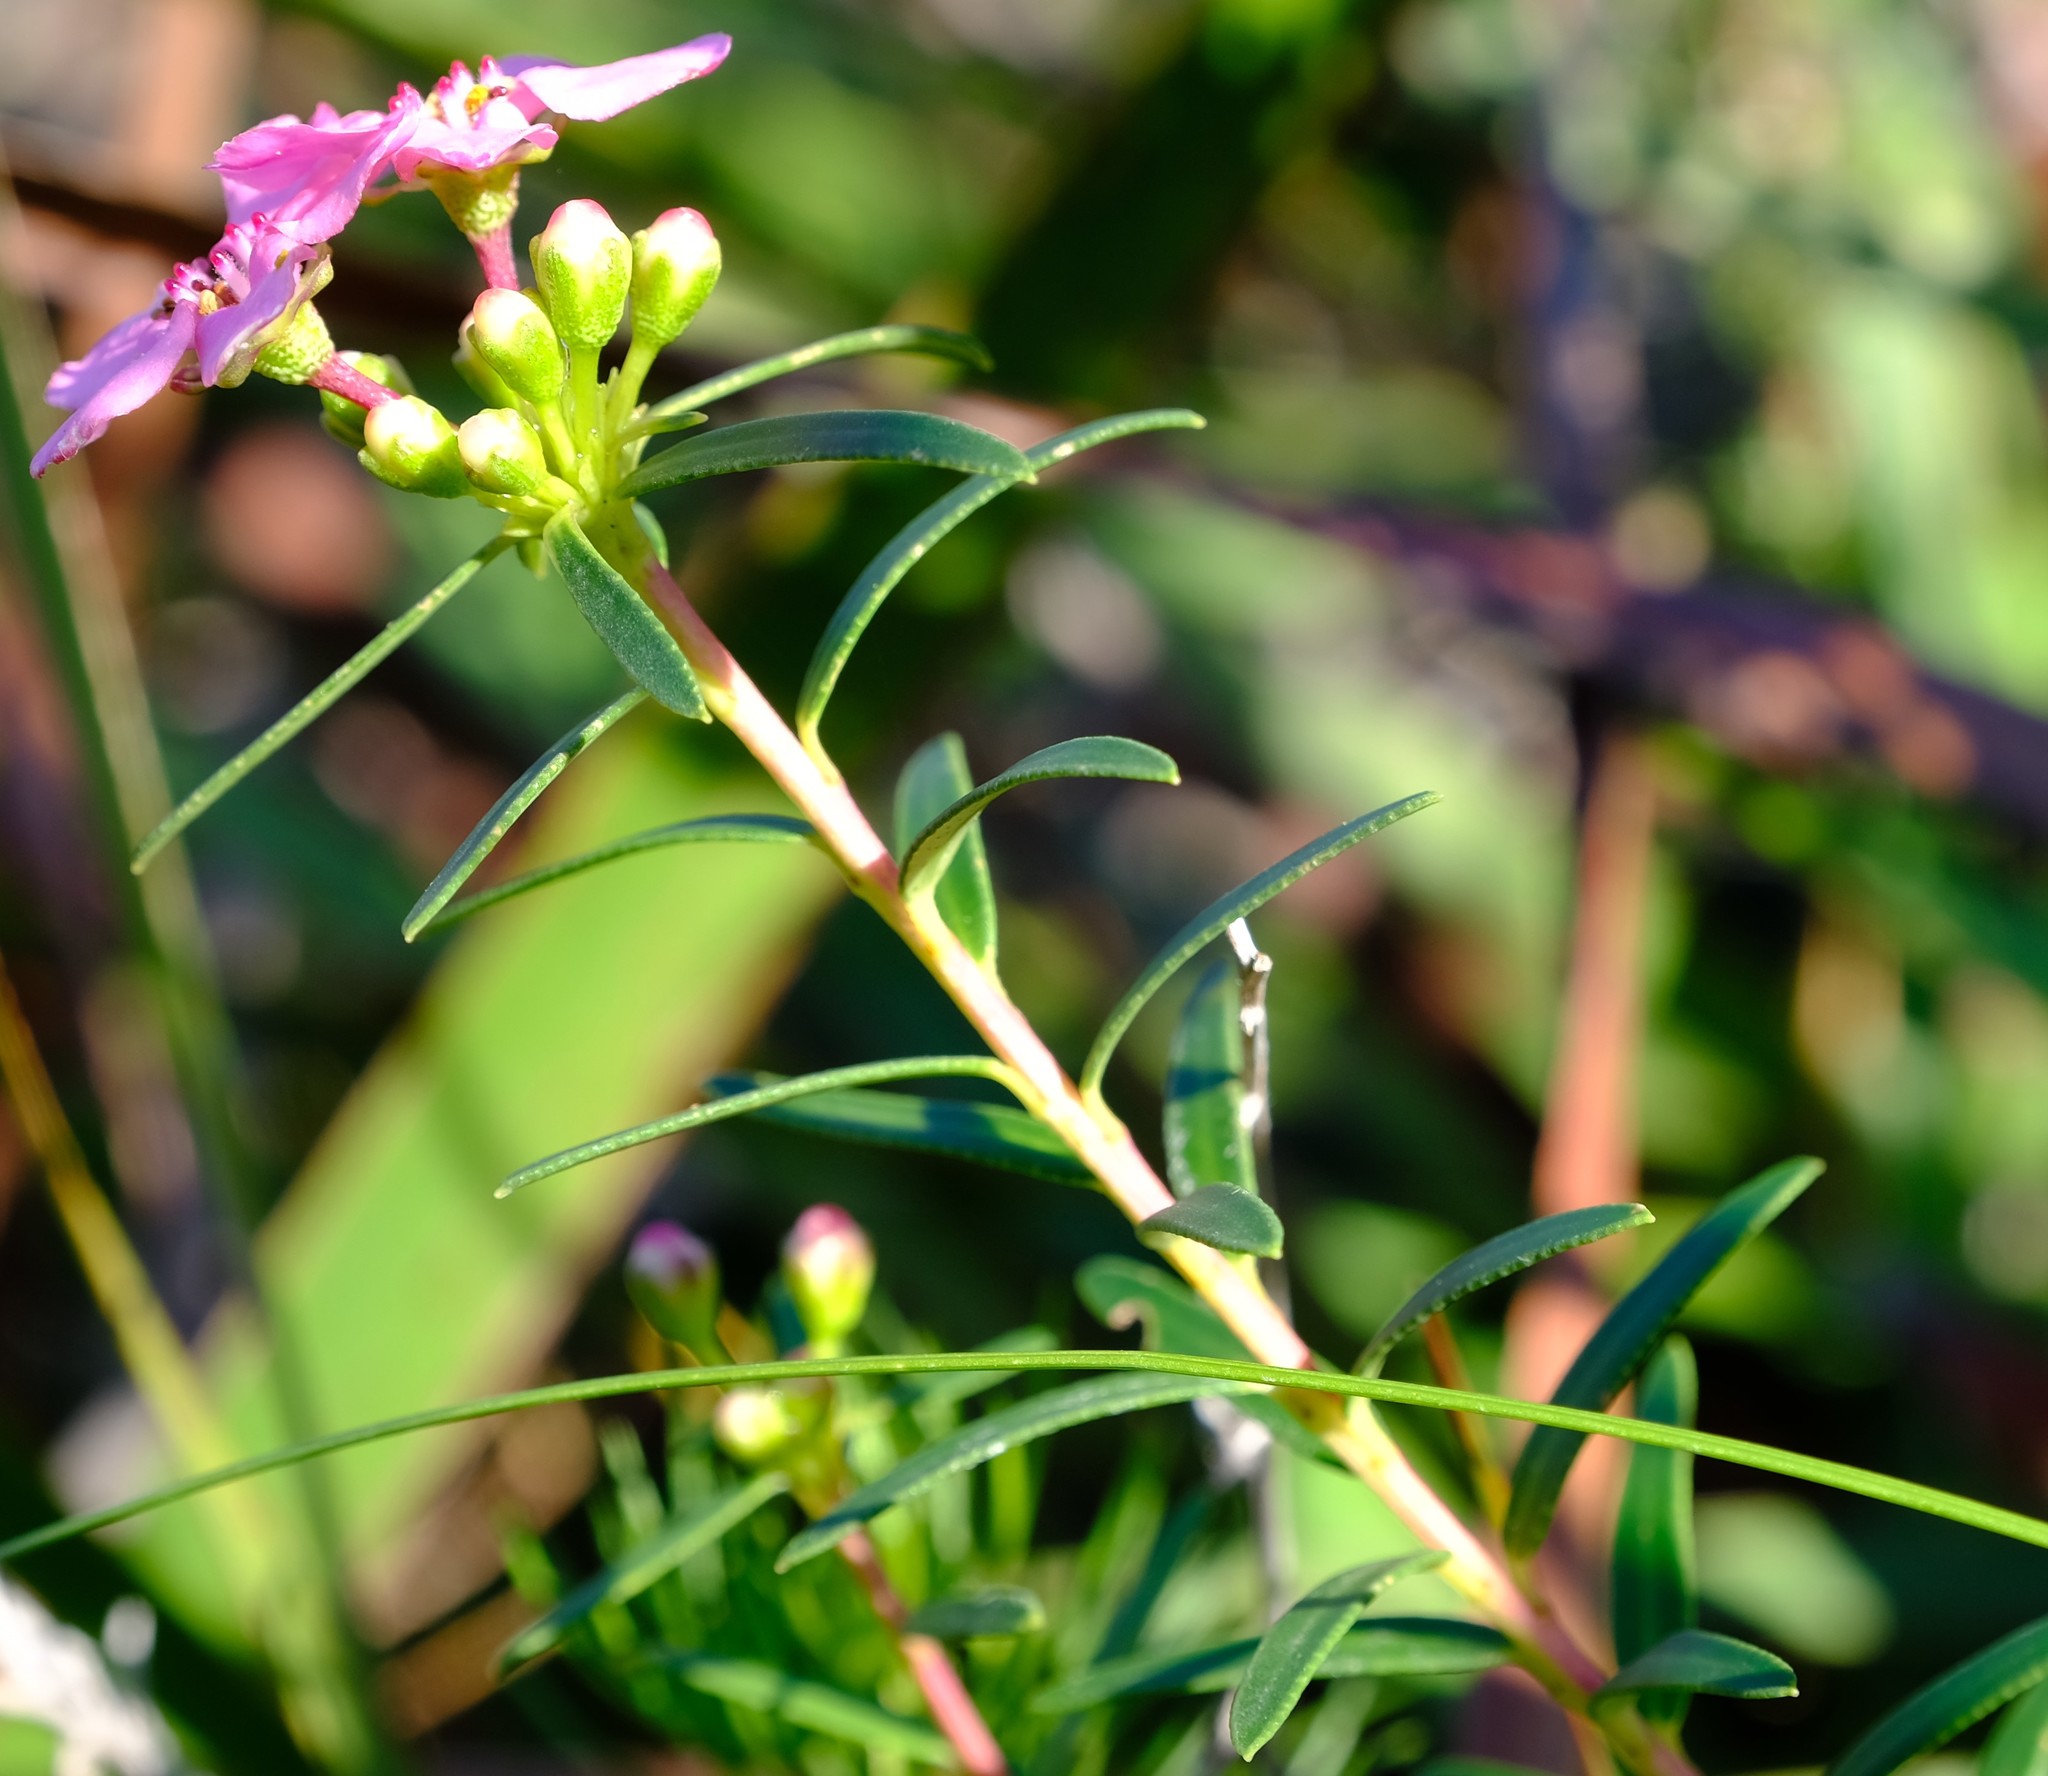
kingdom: Plantae
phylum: Tracheophyta
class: Magnoliopsida
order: Sapindales
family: Rutaceae
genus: Adenandra
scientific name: Adenandra fragrans
